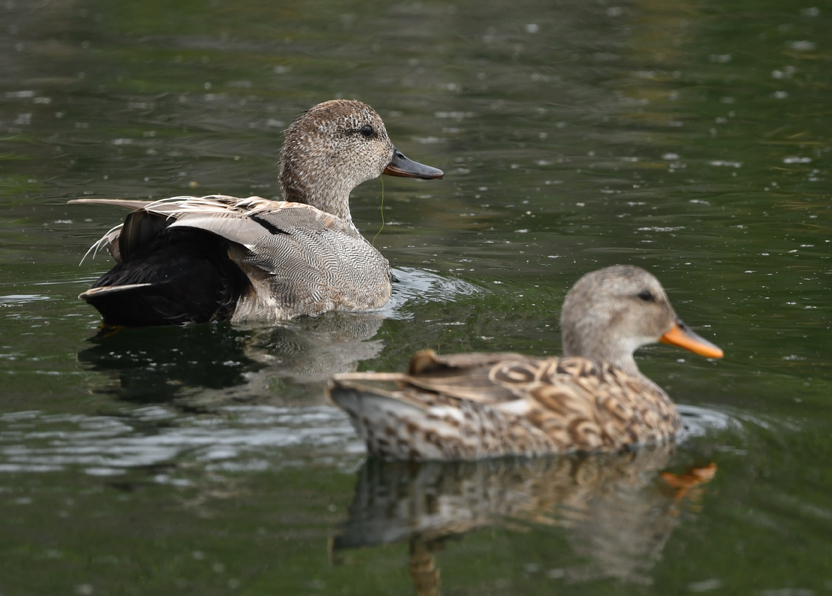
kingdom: Animalia
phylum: Chordata
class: Aves
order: Anseriformes
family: Anatidae
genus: Mareca
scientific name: Mareca strepera
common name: Gadwall
